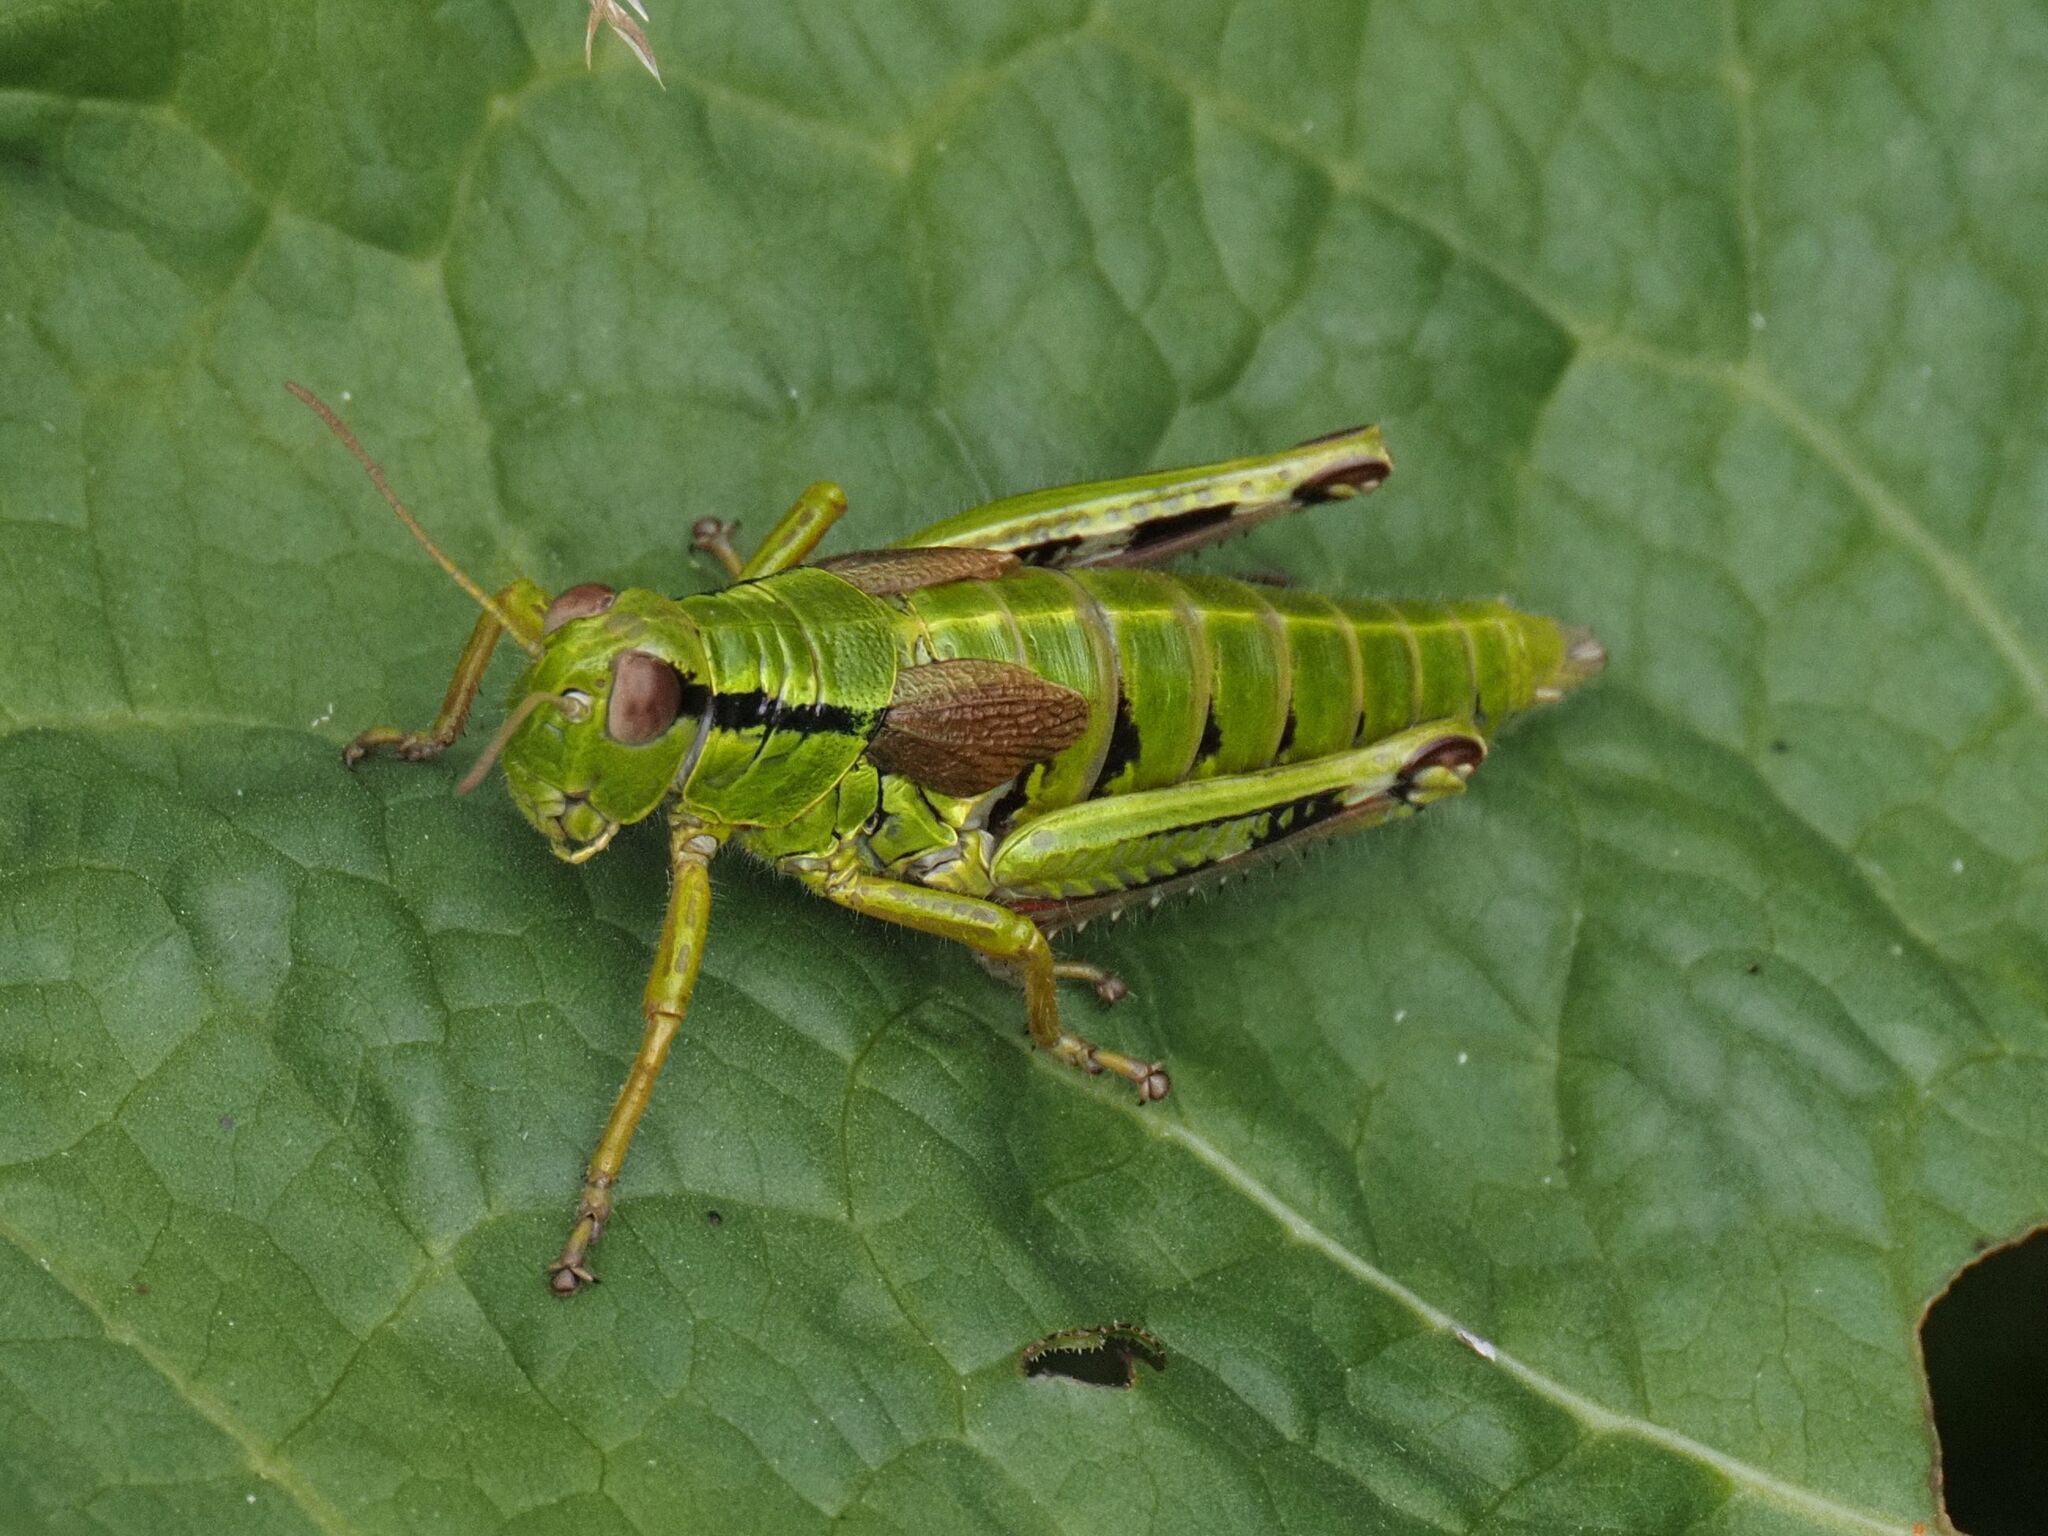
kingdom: Animalia
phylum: Arthropoda
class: Insecta
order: Orthoptera
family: Acrididae
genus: Miramella
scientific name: Miramella alpina
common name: Green mountain grasshopper
